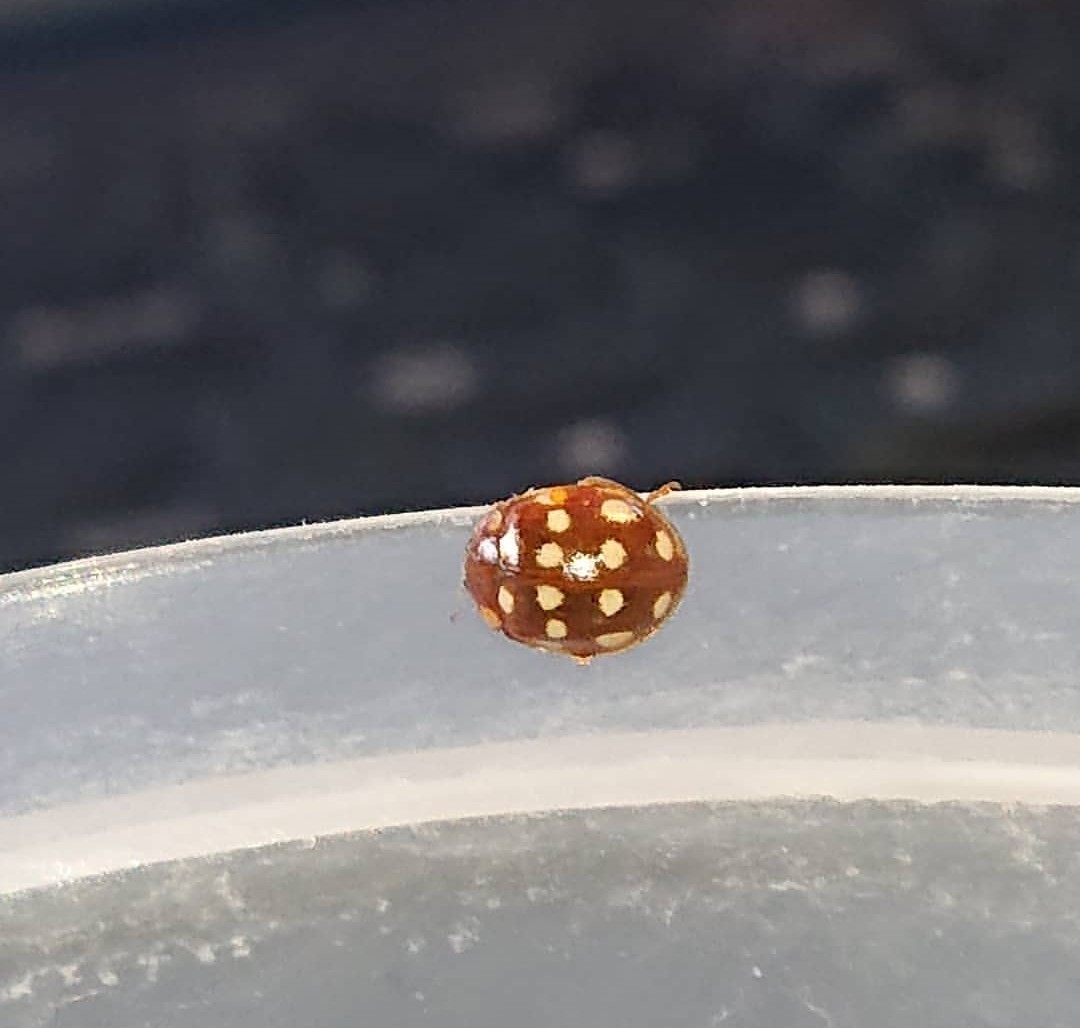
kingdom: Animalia
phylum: Arthropoda
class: Insecta
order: Coleoptera
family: Coccinellidae
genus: Calvia
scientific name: Calvia quatuordecimguttata
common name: Cream-spot ladybird
